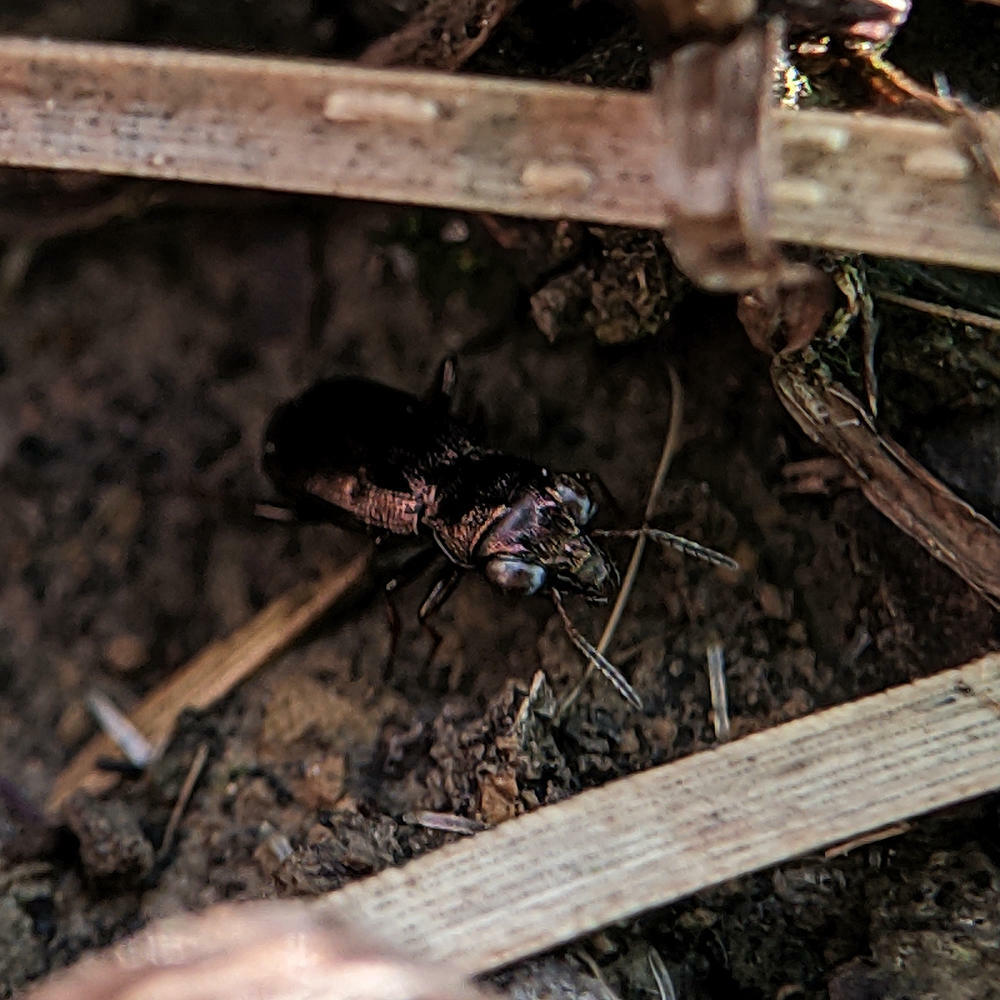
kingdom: Animalia
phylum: Arthropoda
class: Insecta
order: Coleoptera
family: Carabidae
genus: Notiophilus
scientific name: Notiophilus rufipes
